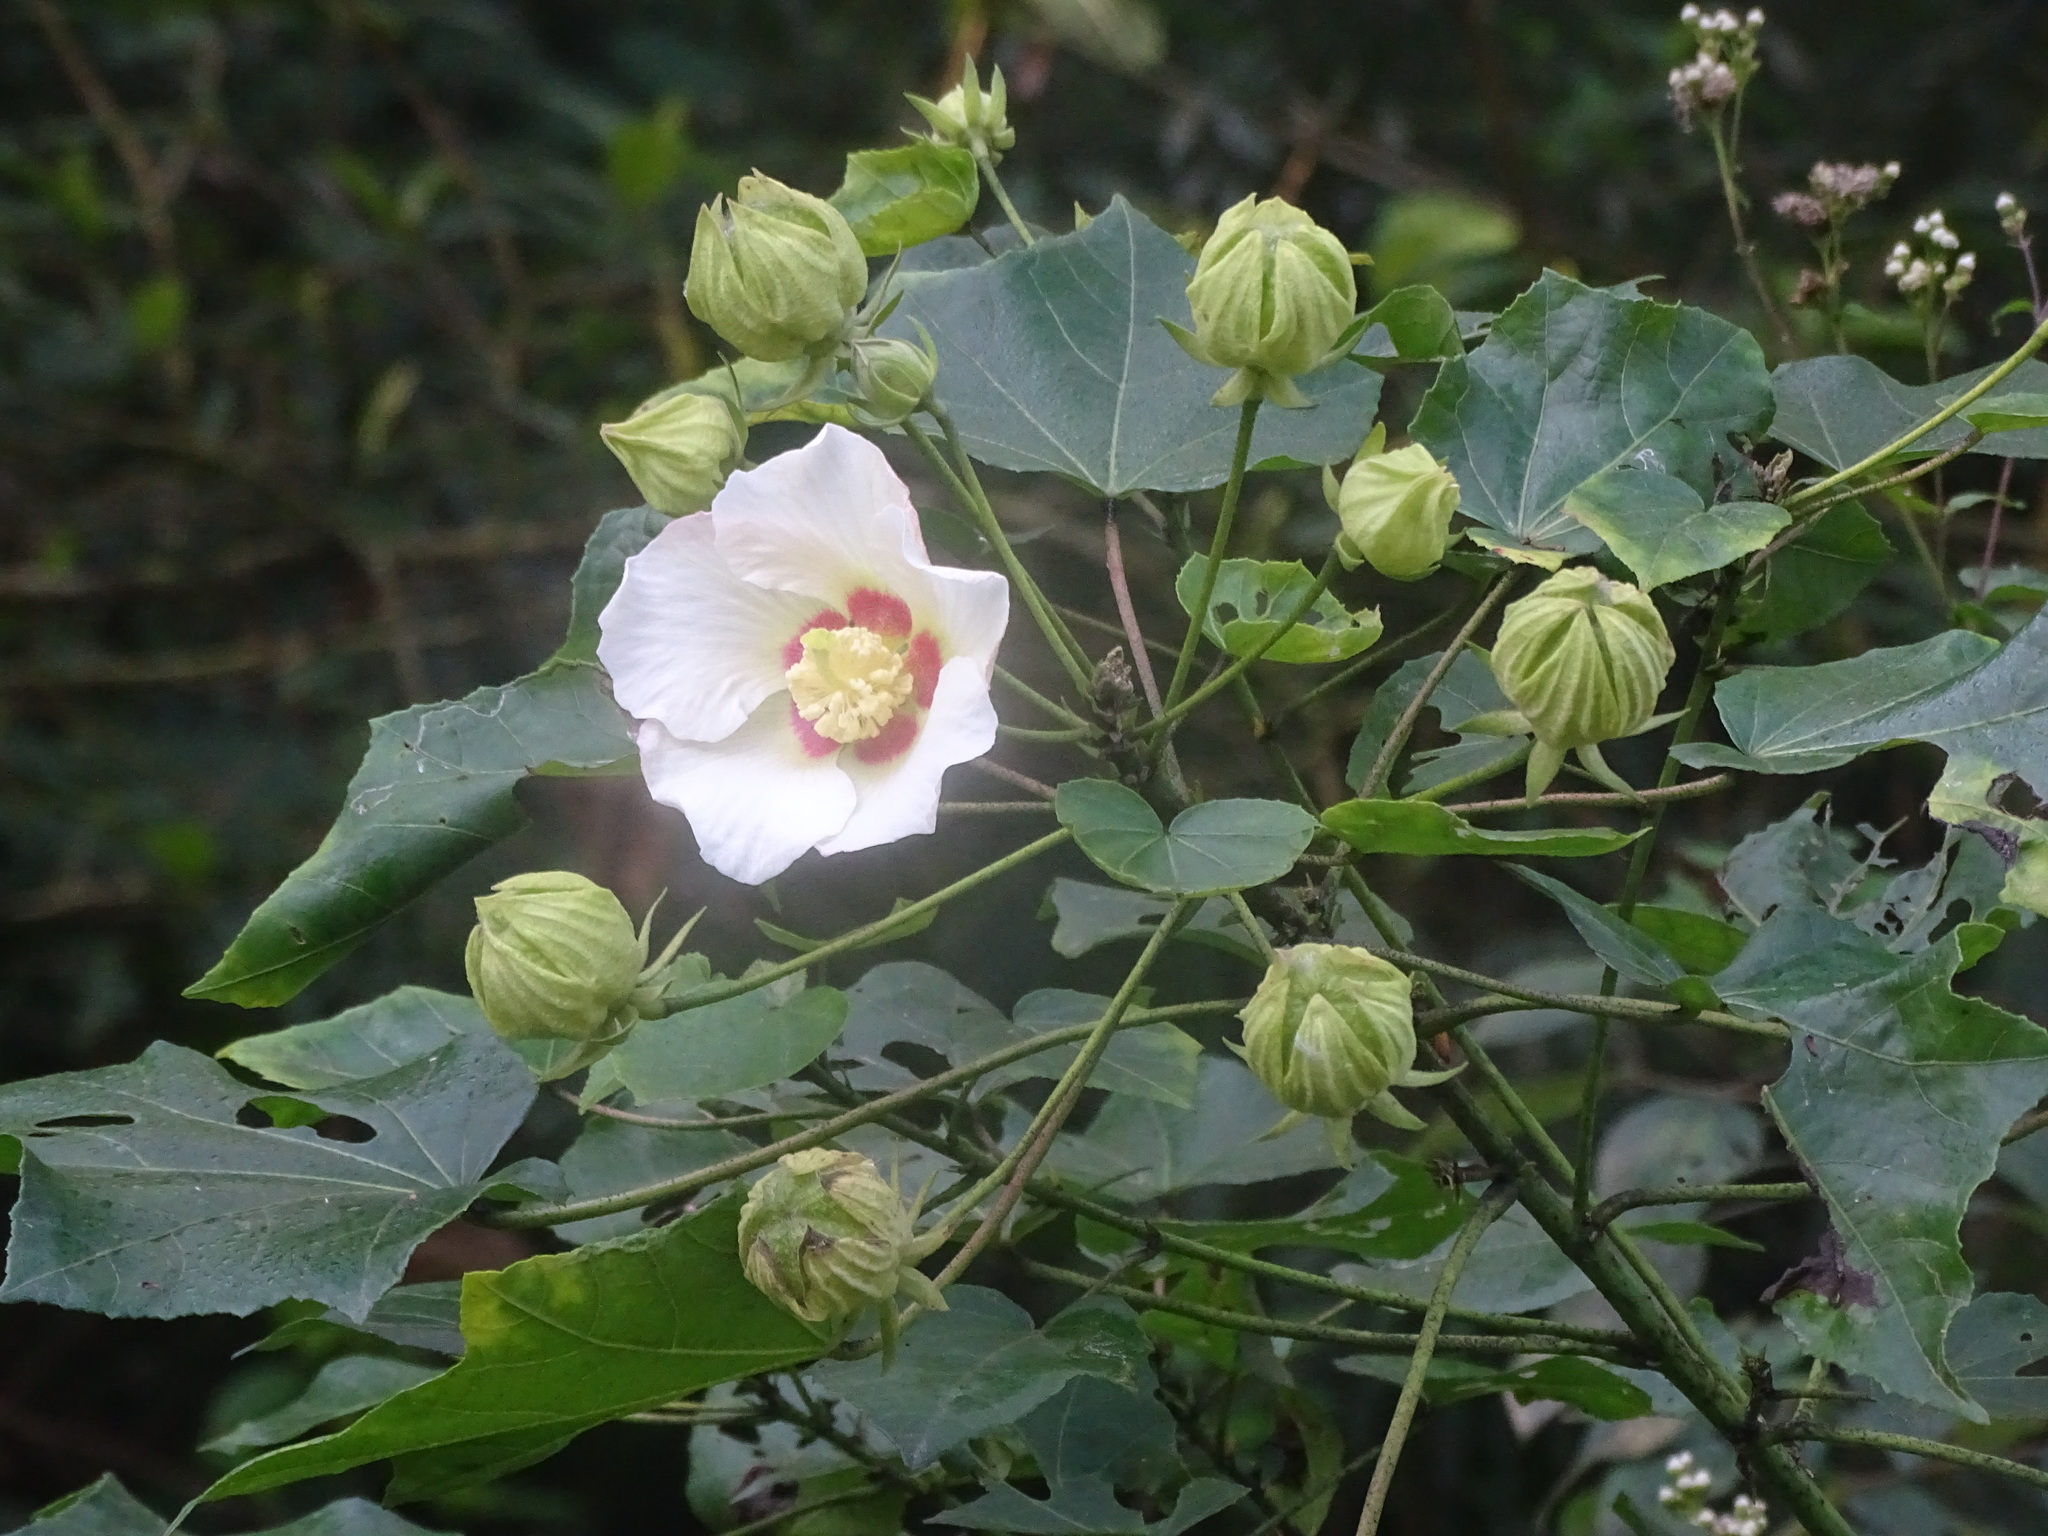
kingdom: Plantae
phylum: Tracheophyta
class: Magnoliopsida
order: Malvales
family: Malvaceae
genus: Hibiscus
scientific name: Hibiscus taiwanensis
